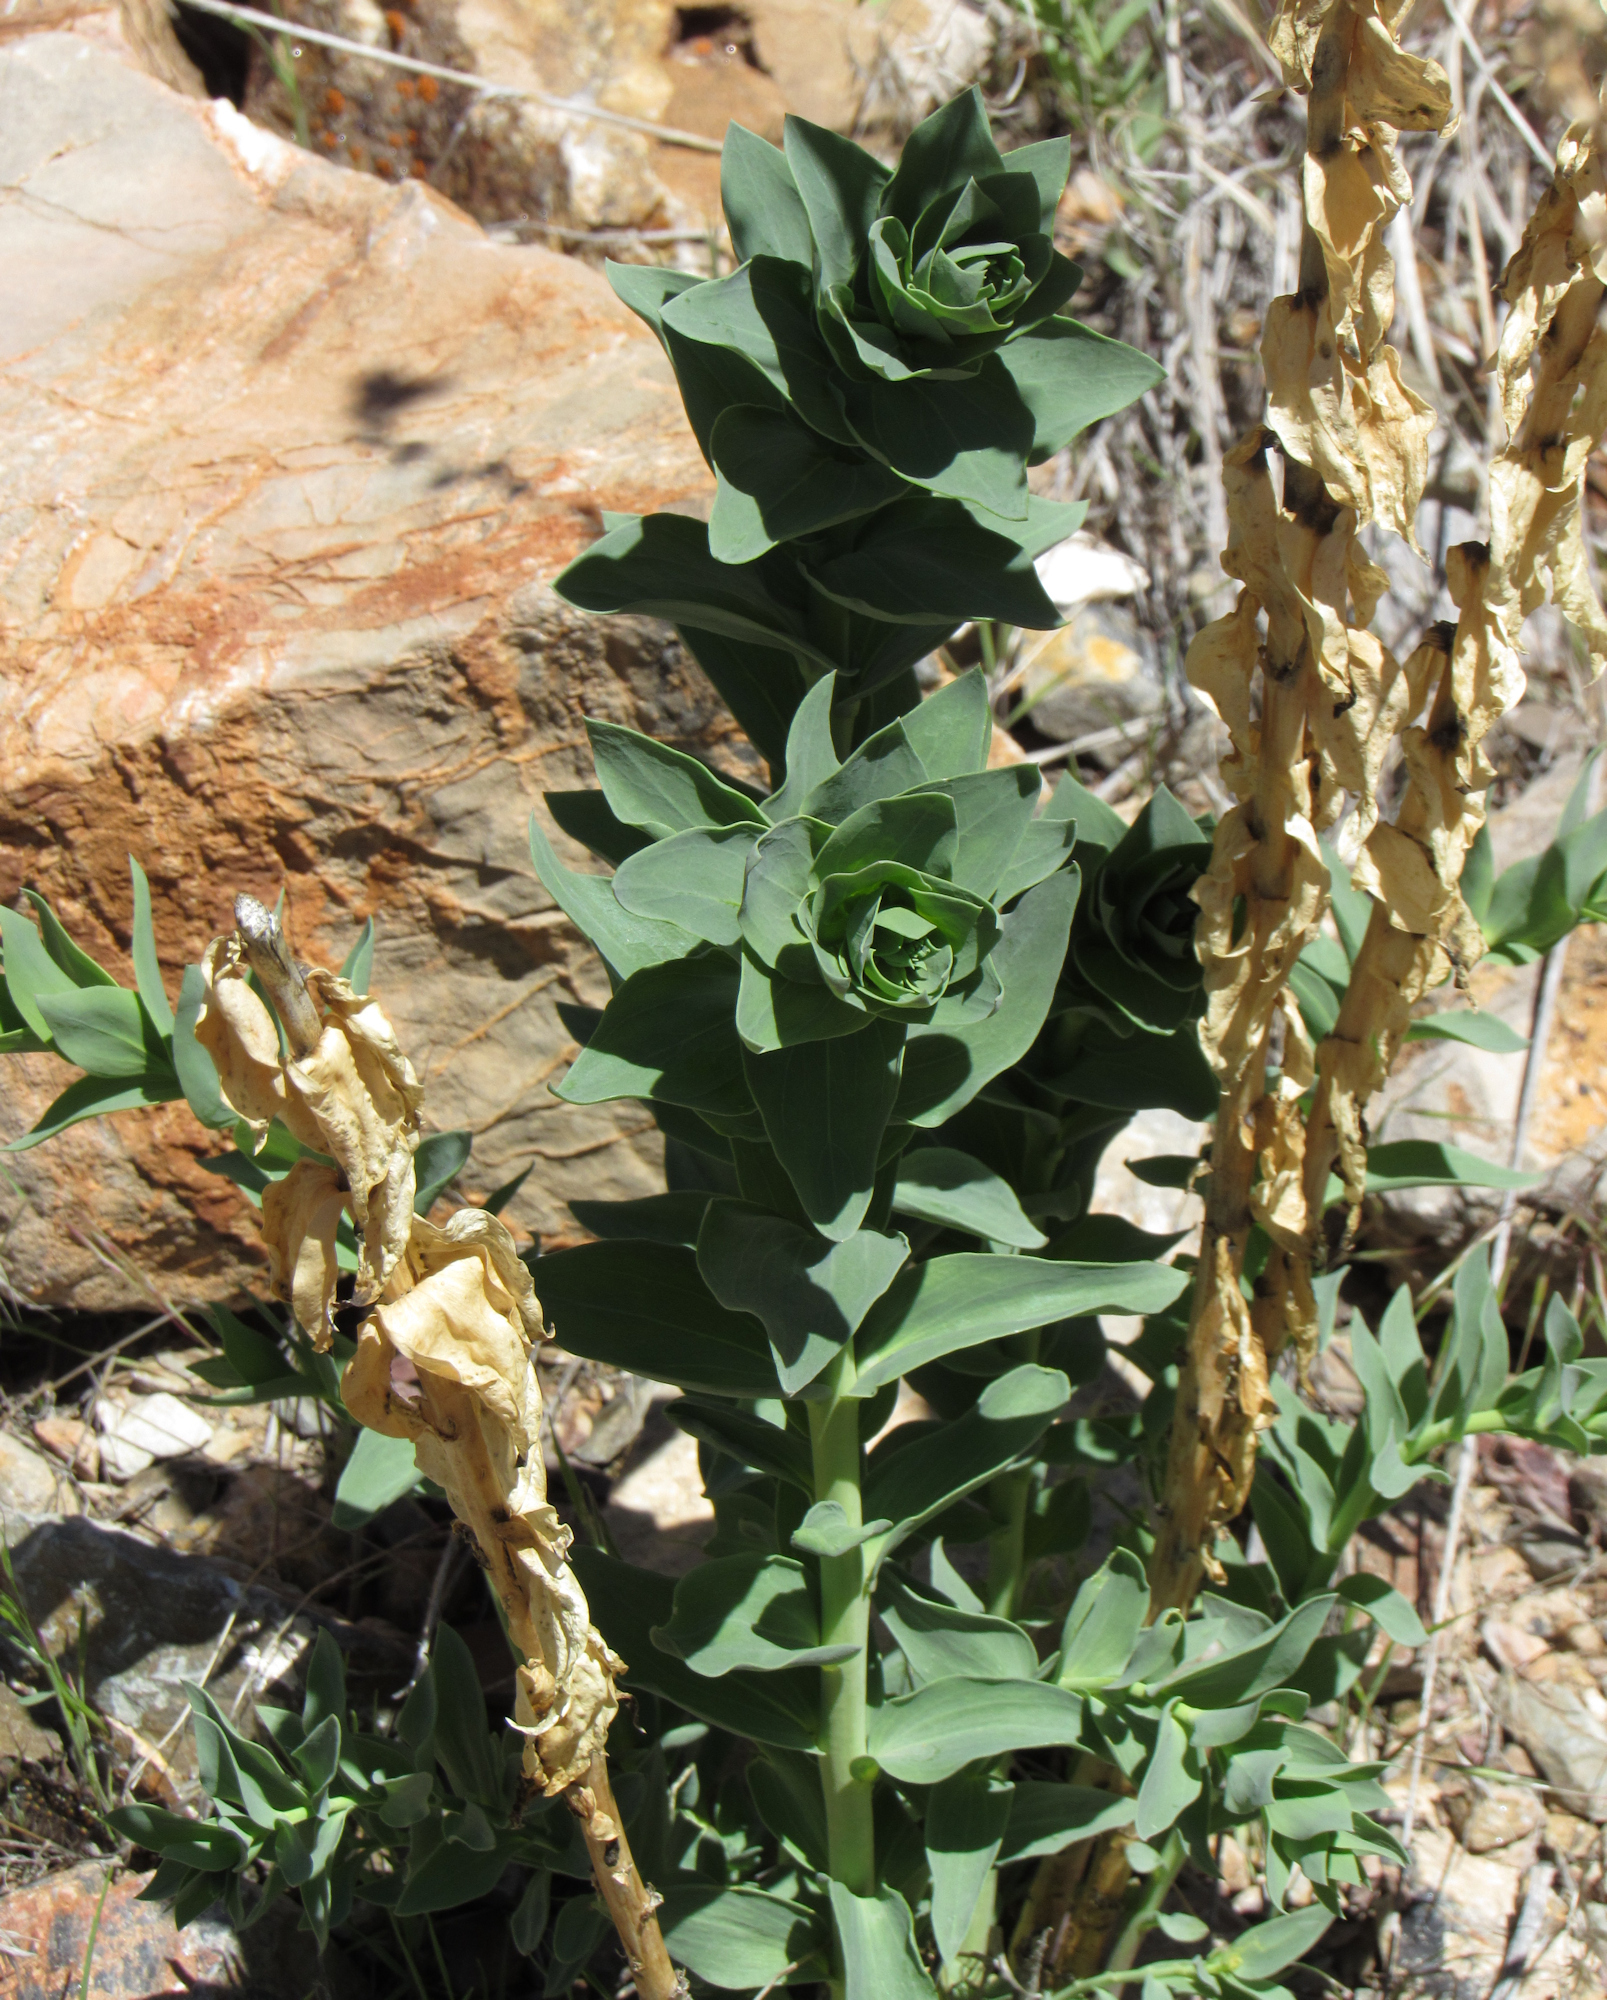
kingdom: Plantae
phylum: Tracheophyta
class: Magnoliopsida
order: Lamiales
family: Plantaginaceae
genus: Linaria
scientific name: Linaria dalmatica
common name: Dalmatian toadflax
